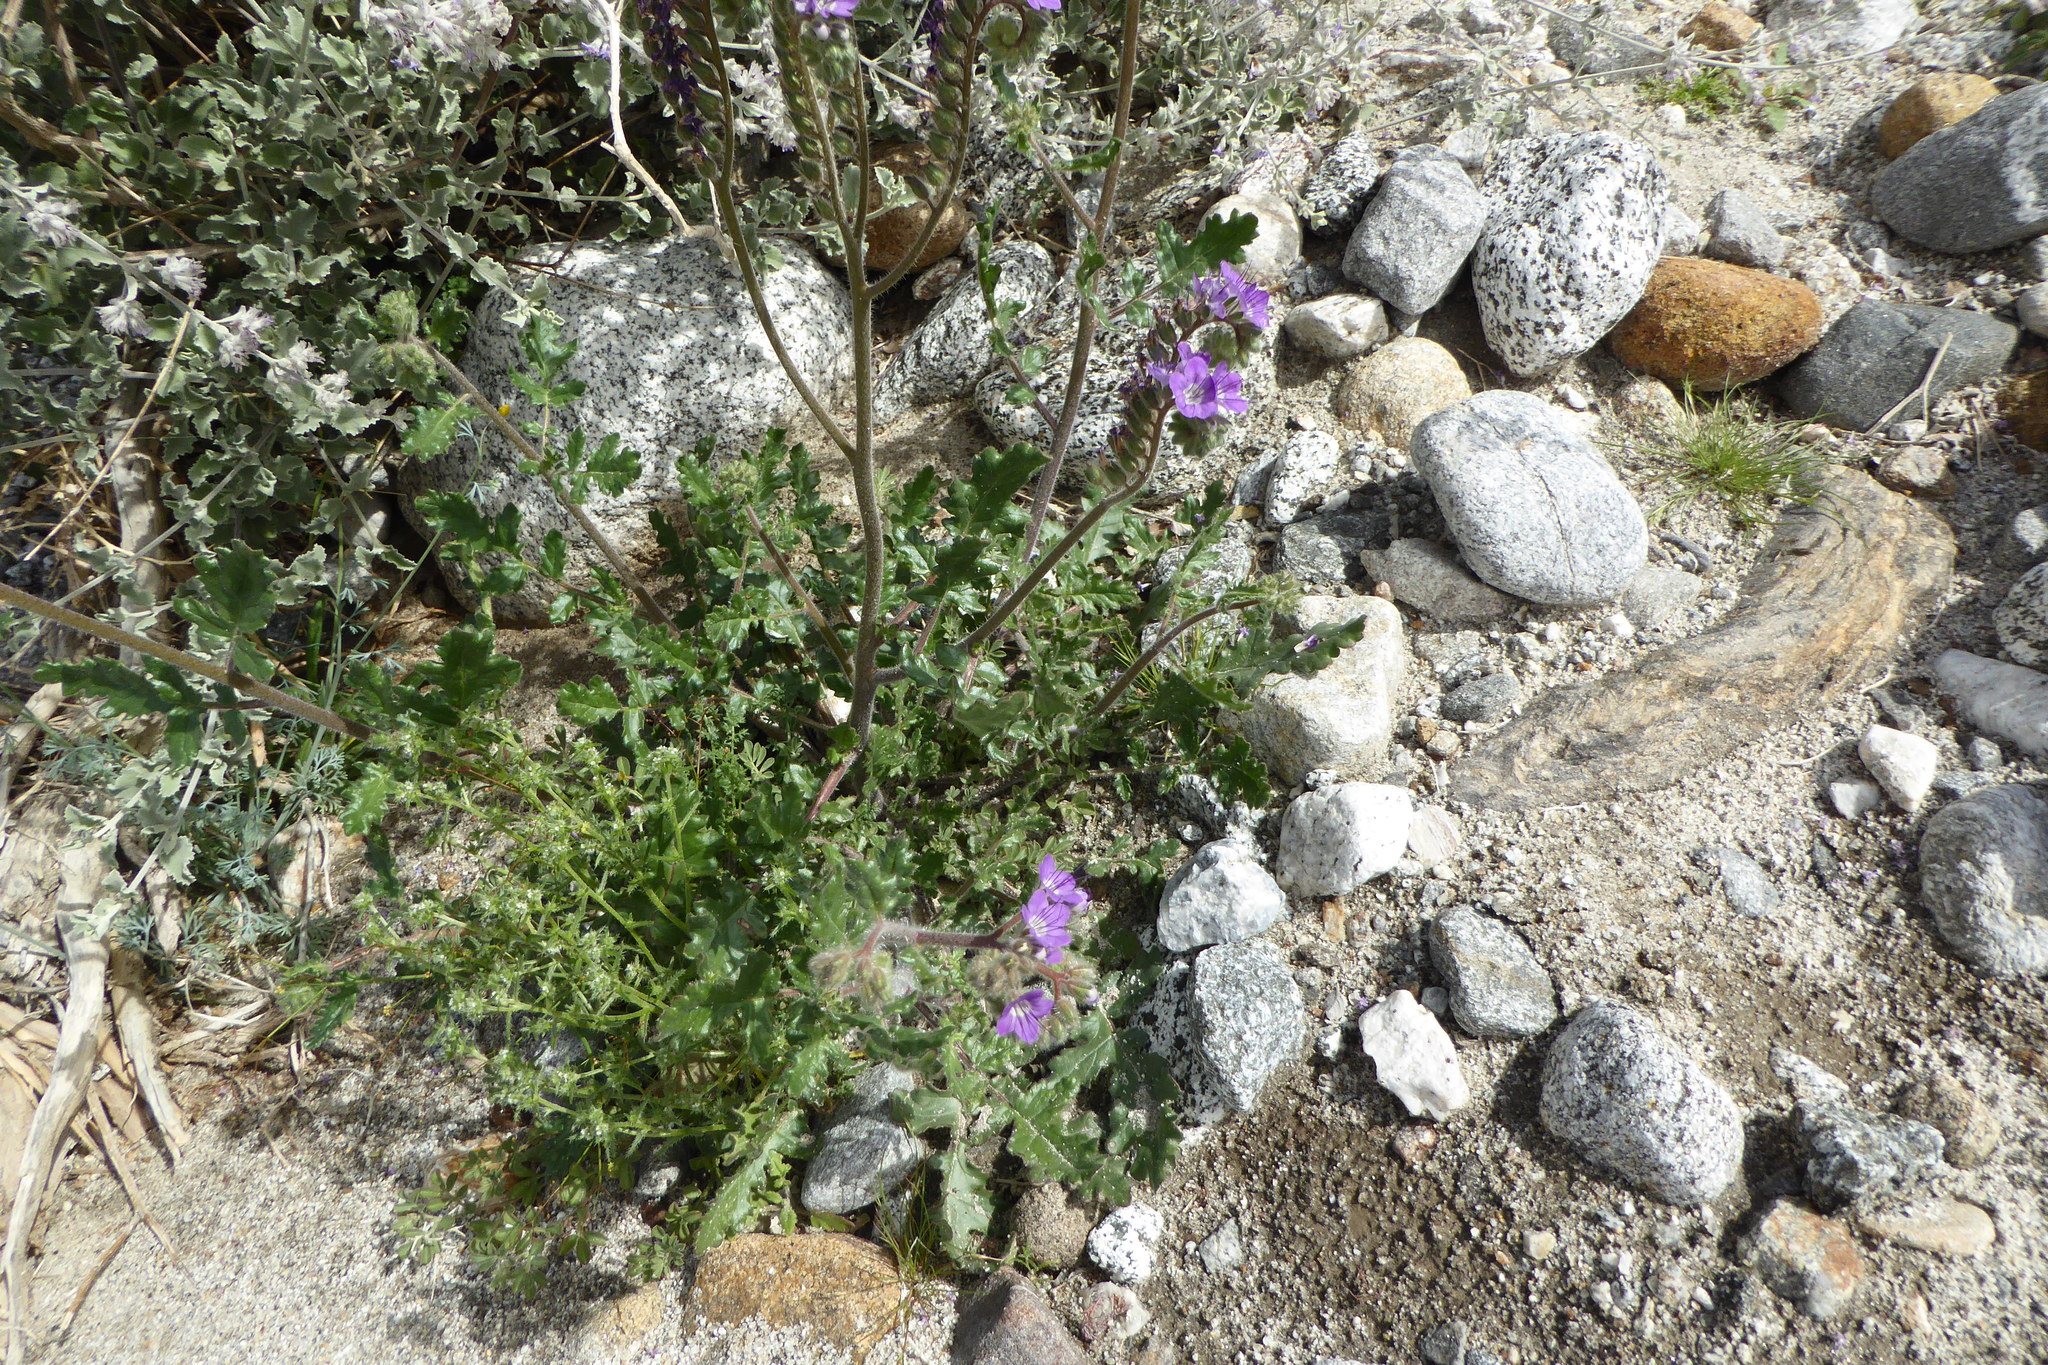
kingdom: Plantae
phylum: Tracheophyta
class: Magnoliopsida
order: Boraginales
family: Hydrophyllaceae
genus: Phacelia
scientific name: Phacelia crenulata
